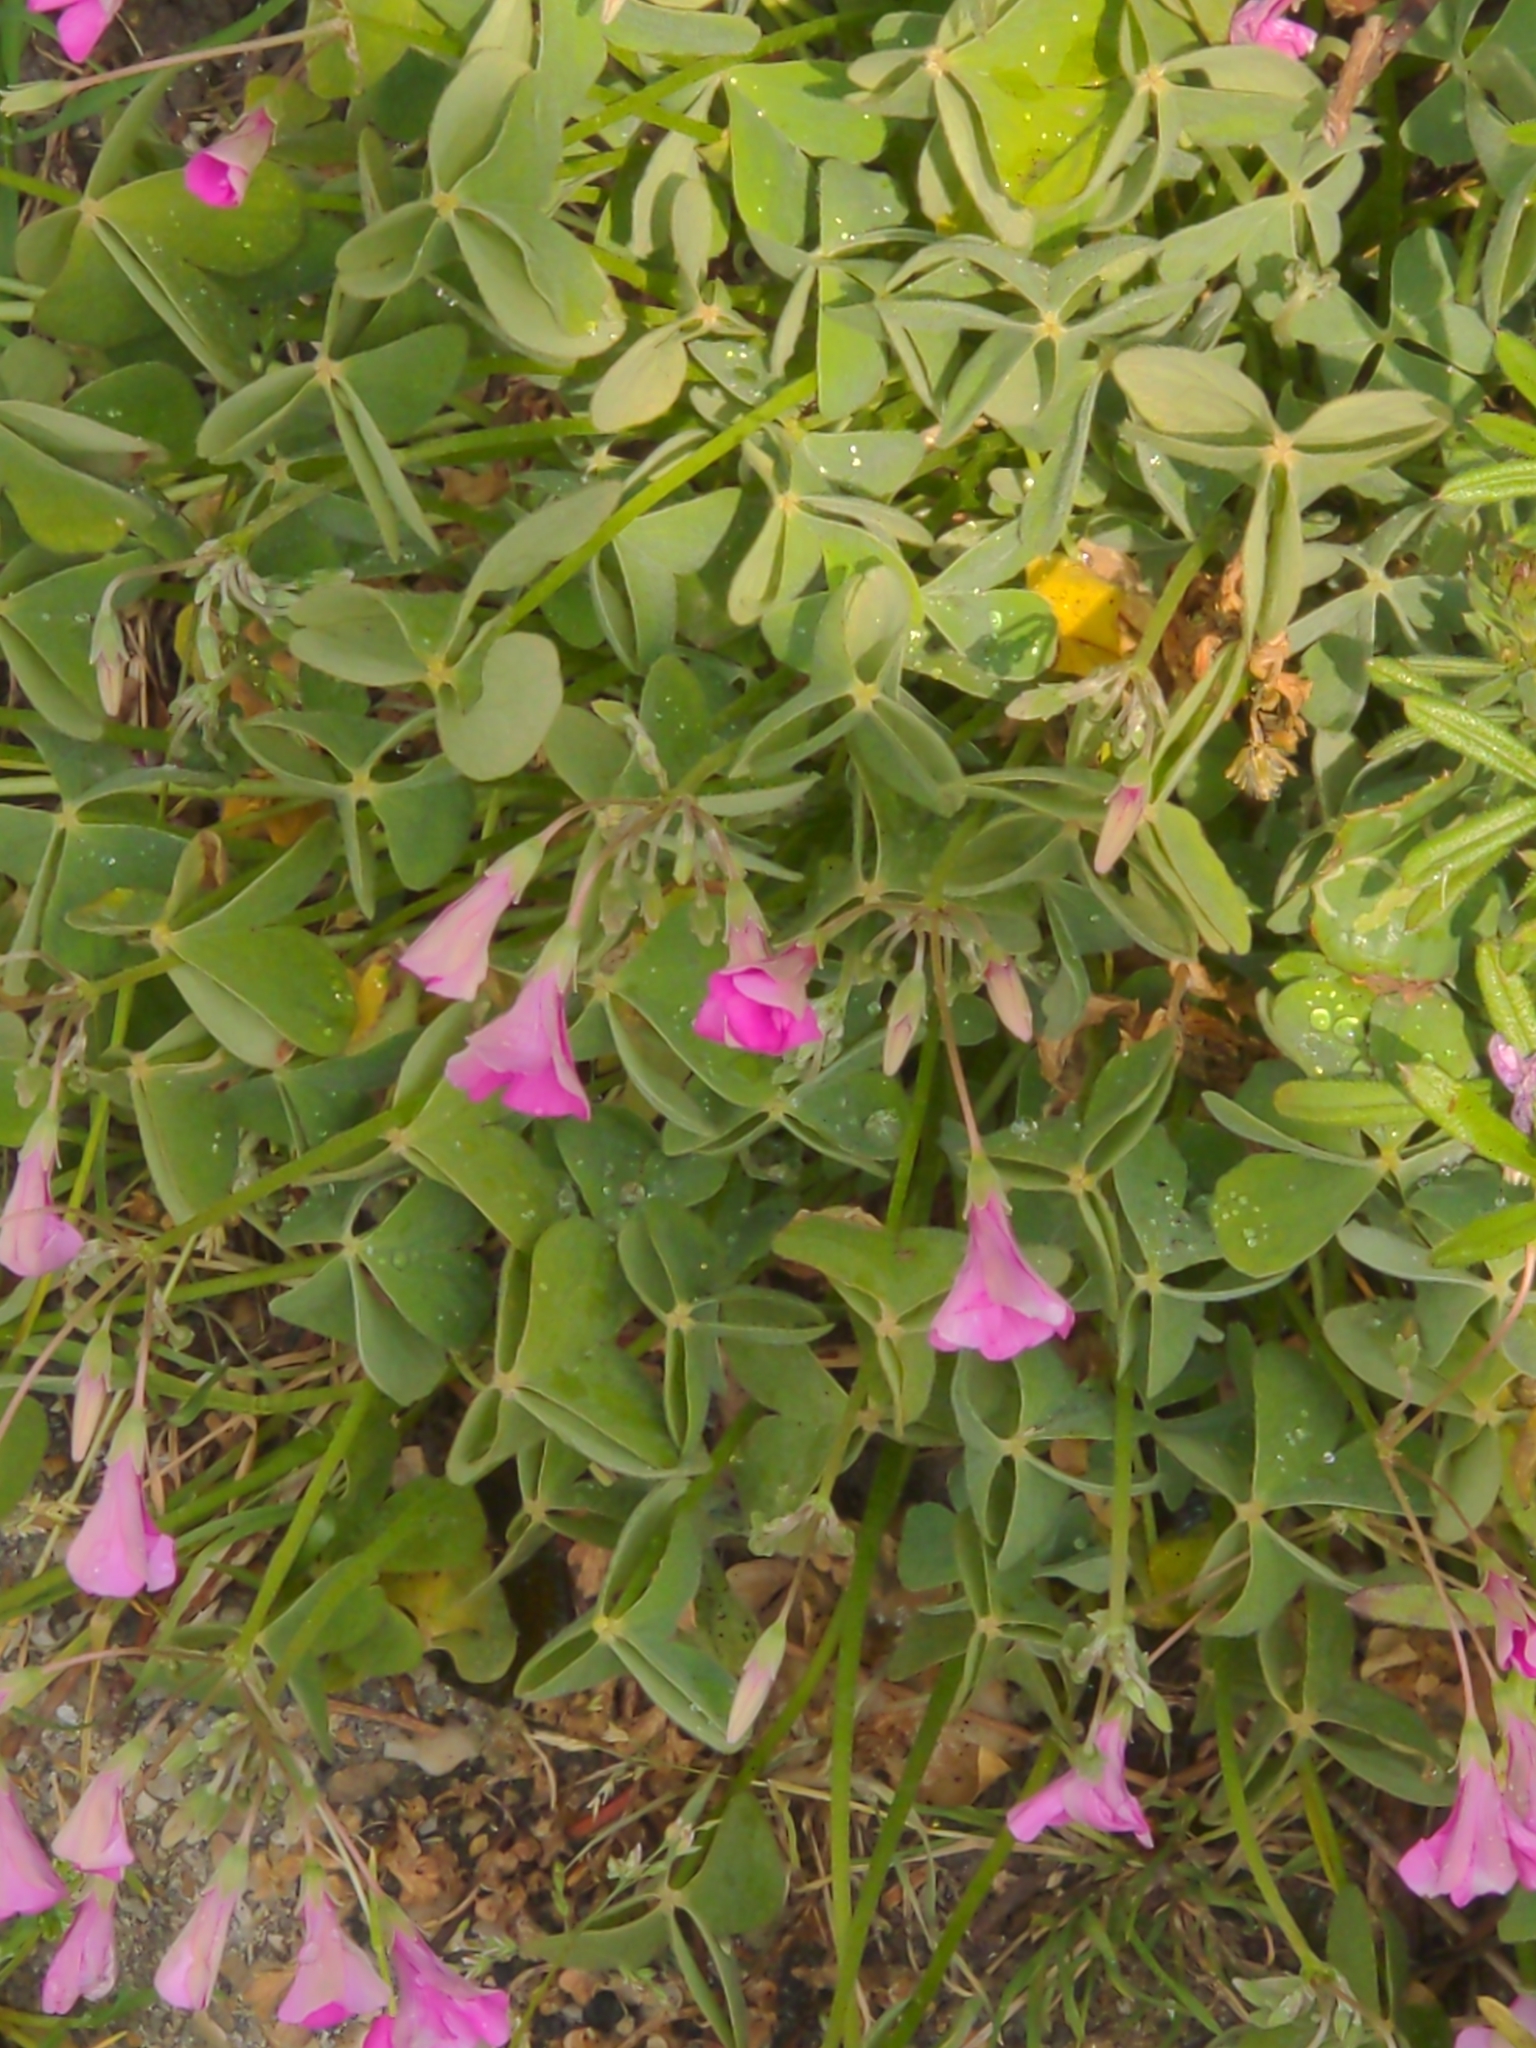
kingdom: Plantae
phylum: Tracheophyta
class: Magnoliopsida
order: Oxalidales
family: Oxalidaceae
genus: Oxalis
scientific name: Oxalis articulata
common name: Pink-sorrel
